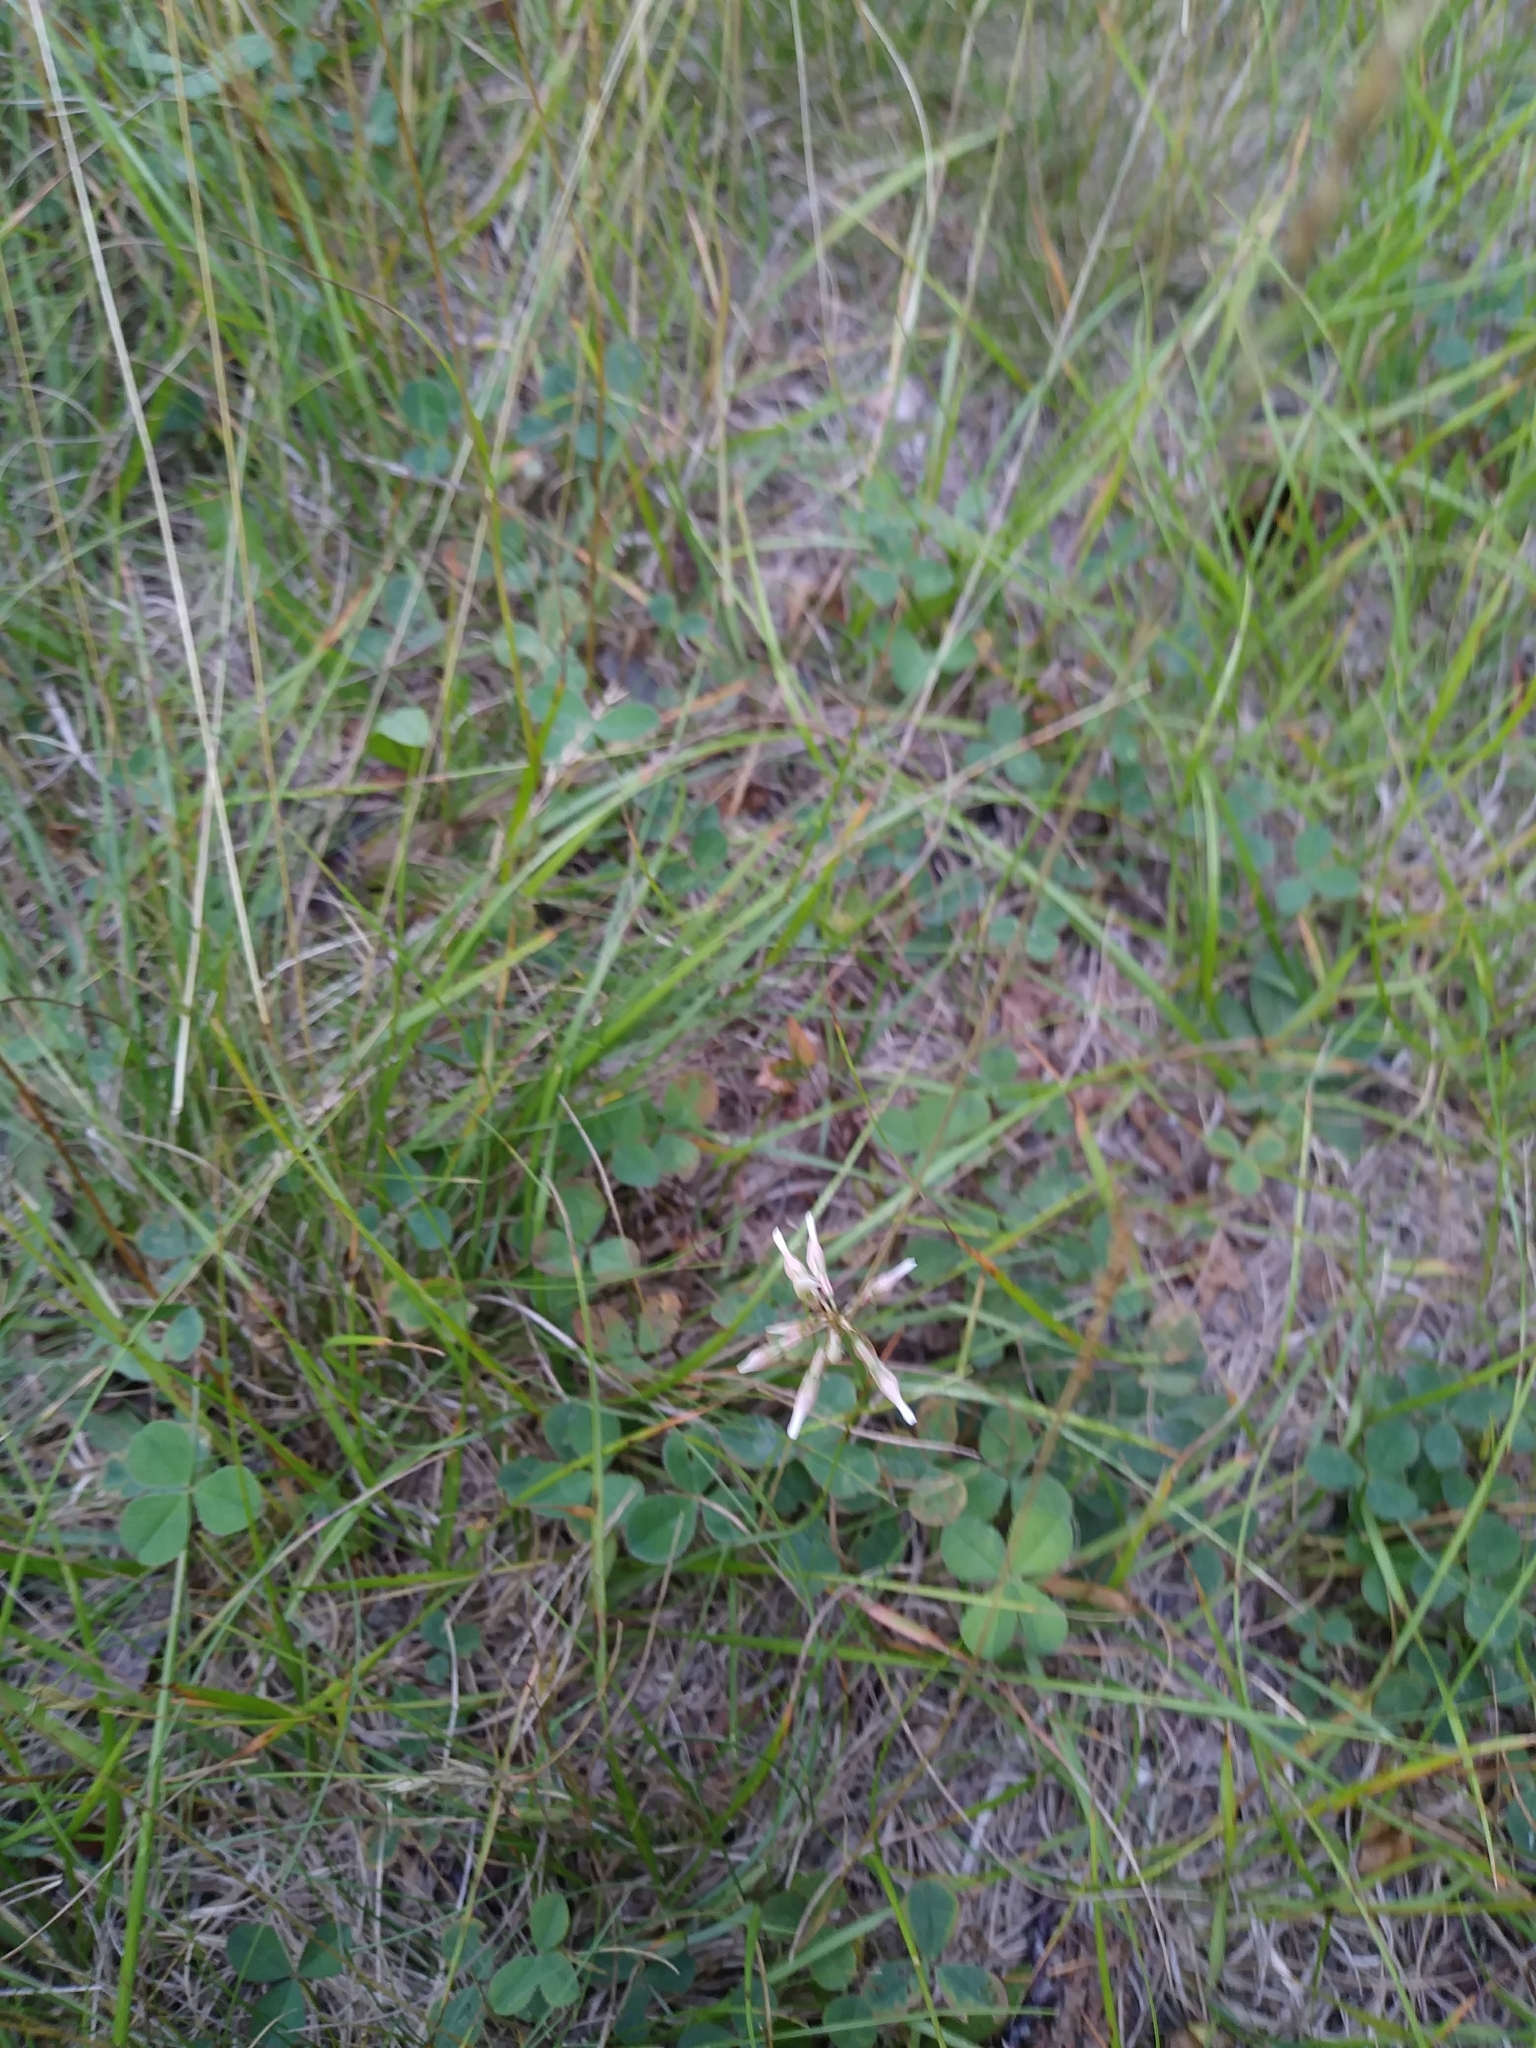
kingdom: Plantae
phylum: Tracheophyta
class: Magnoliopsida
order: Fabales
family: Fabaceae
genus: Trifolium
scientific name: Trifolium repens
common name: White clover
